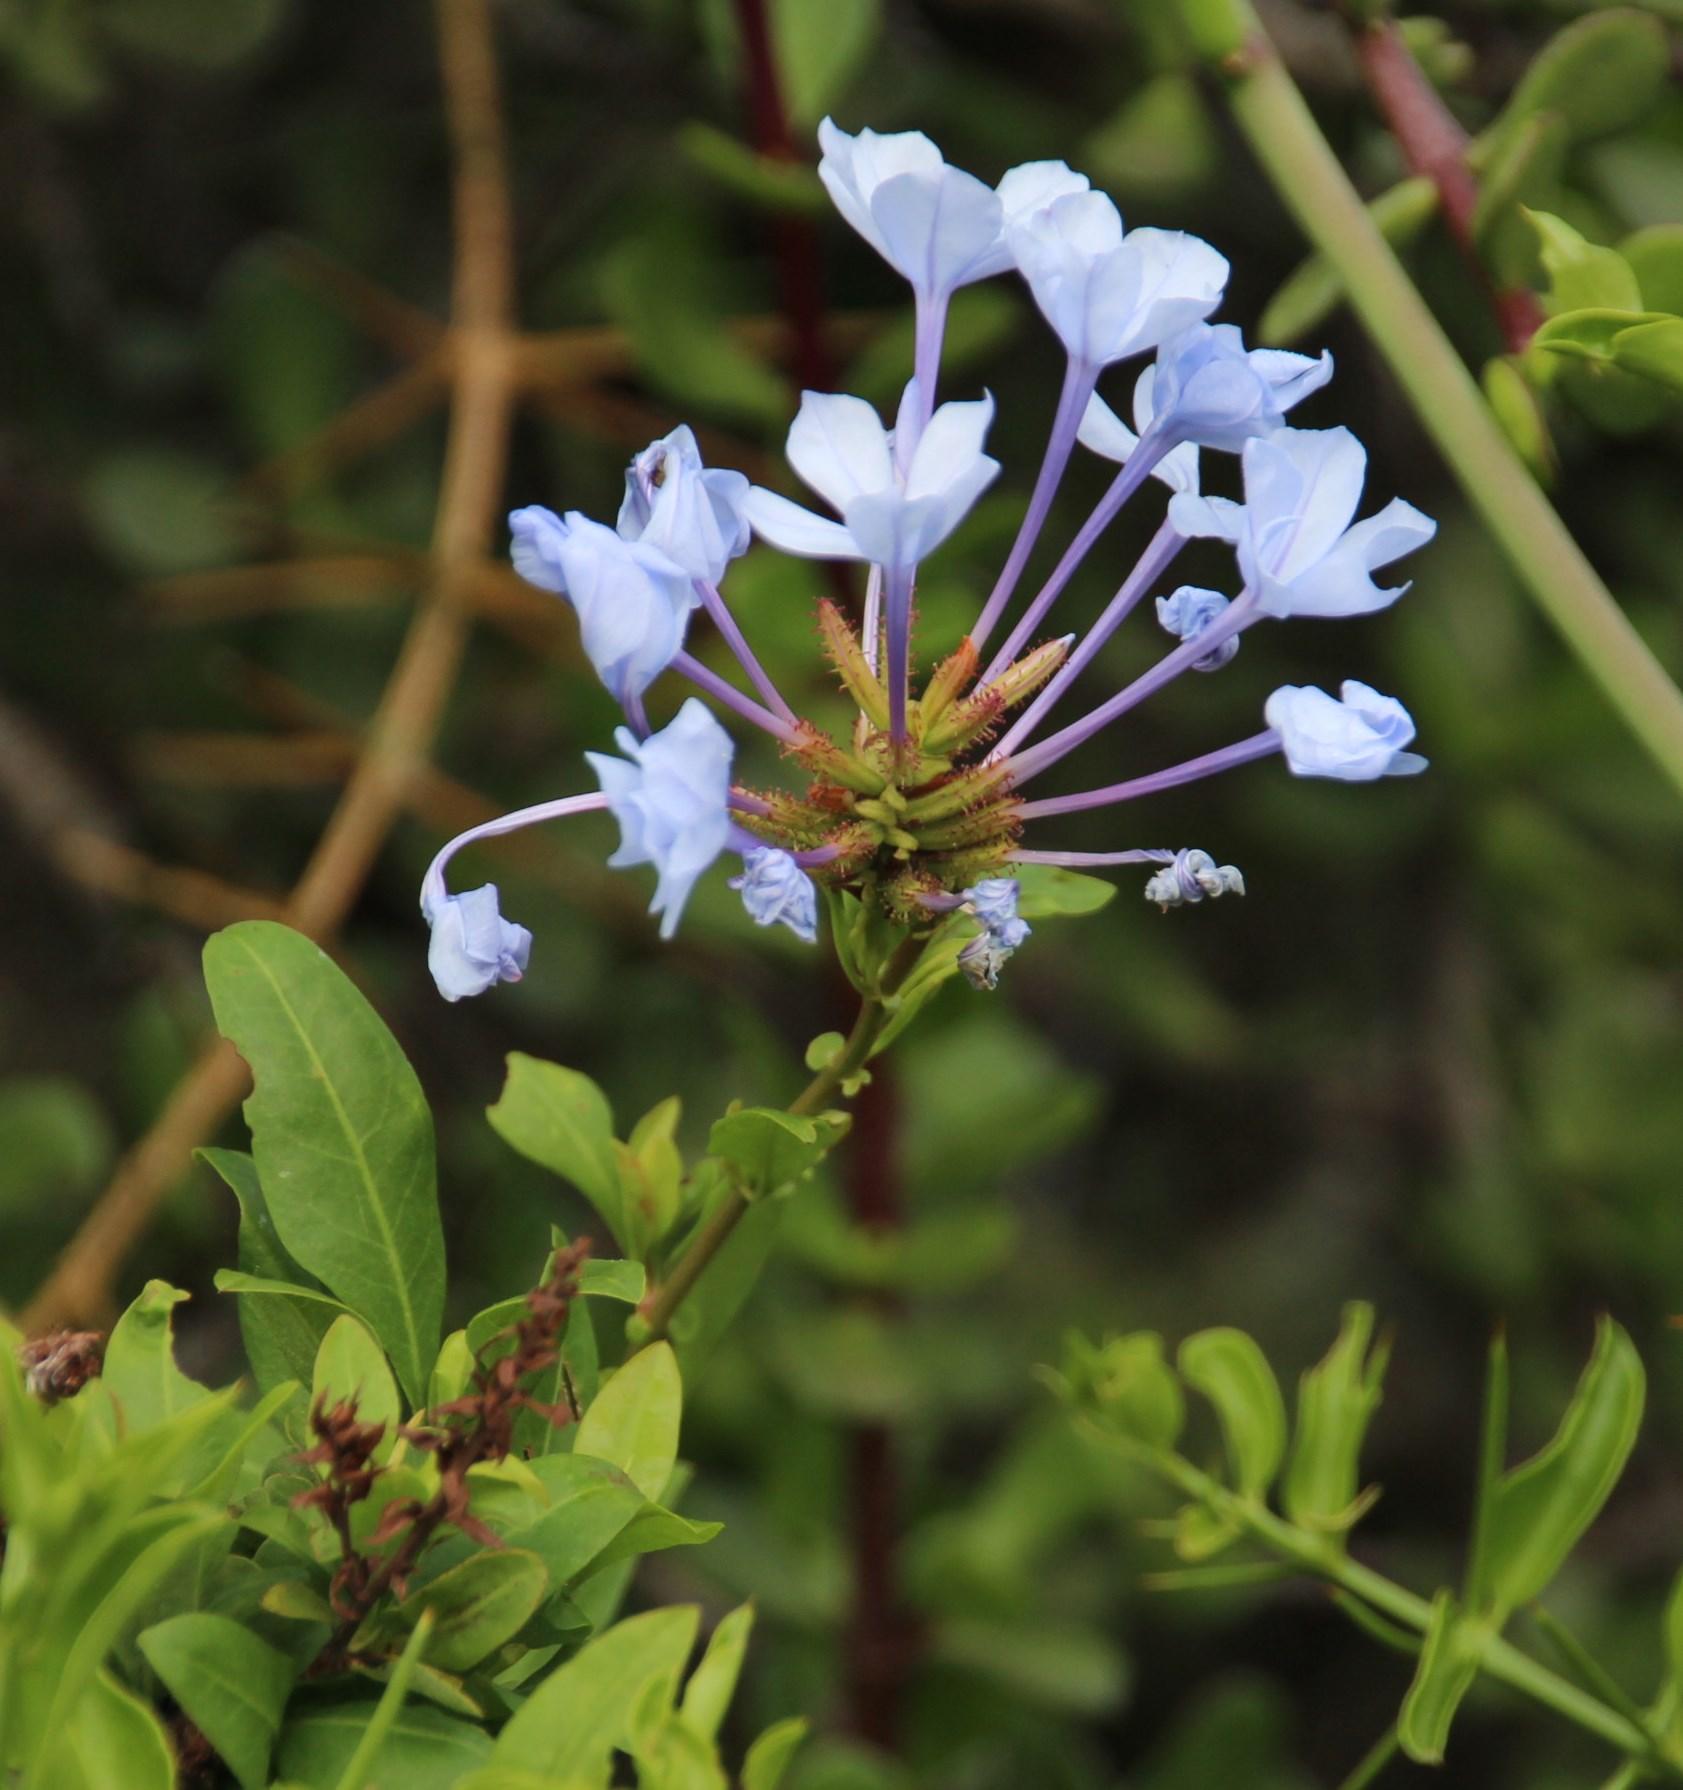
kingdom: Plantae
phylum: Tracheophyta
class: Magnoliopsida
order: Caryophyllales
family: Plumbaginaceae
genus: Plumbago
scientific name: Plumbago auriculata
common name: Cape leadwort
